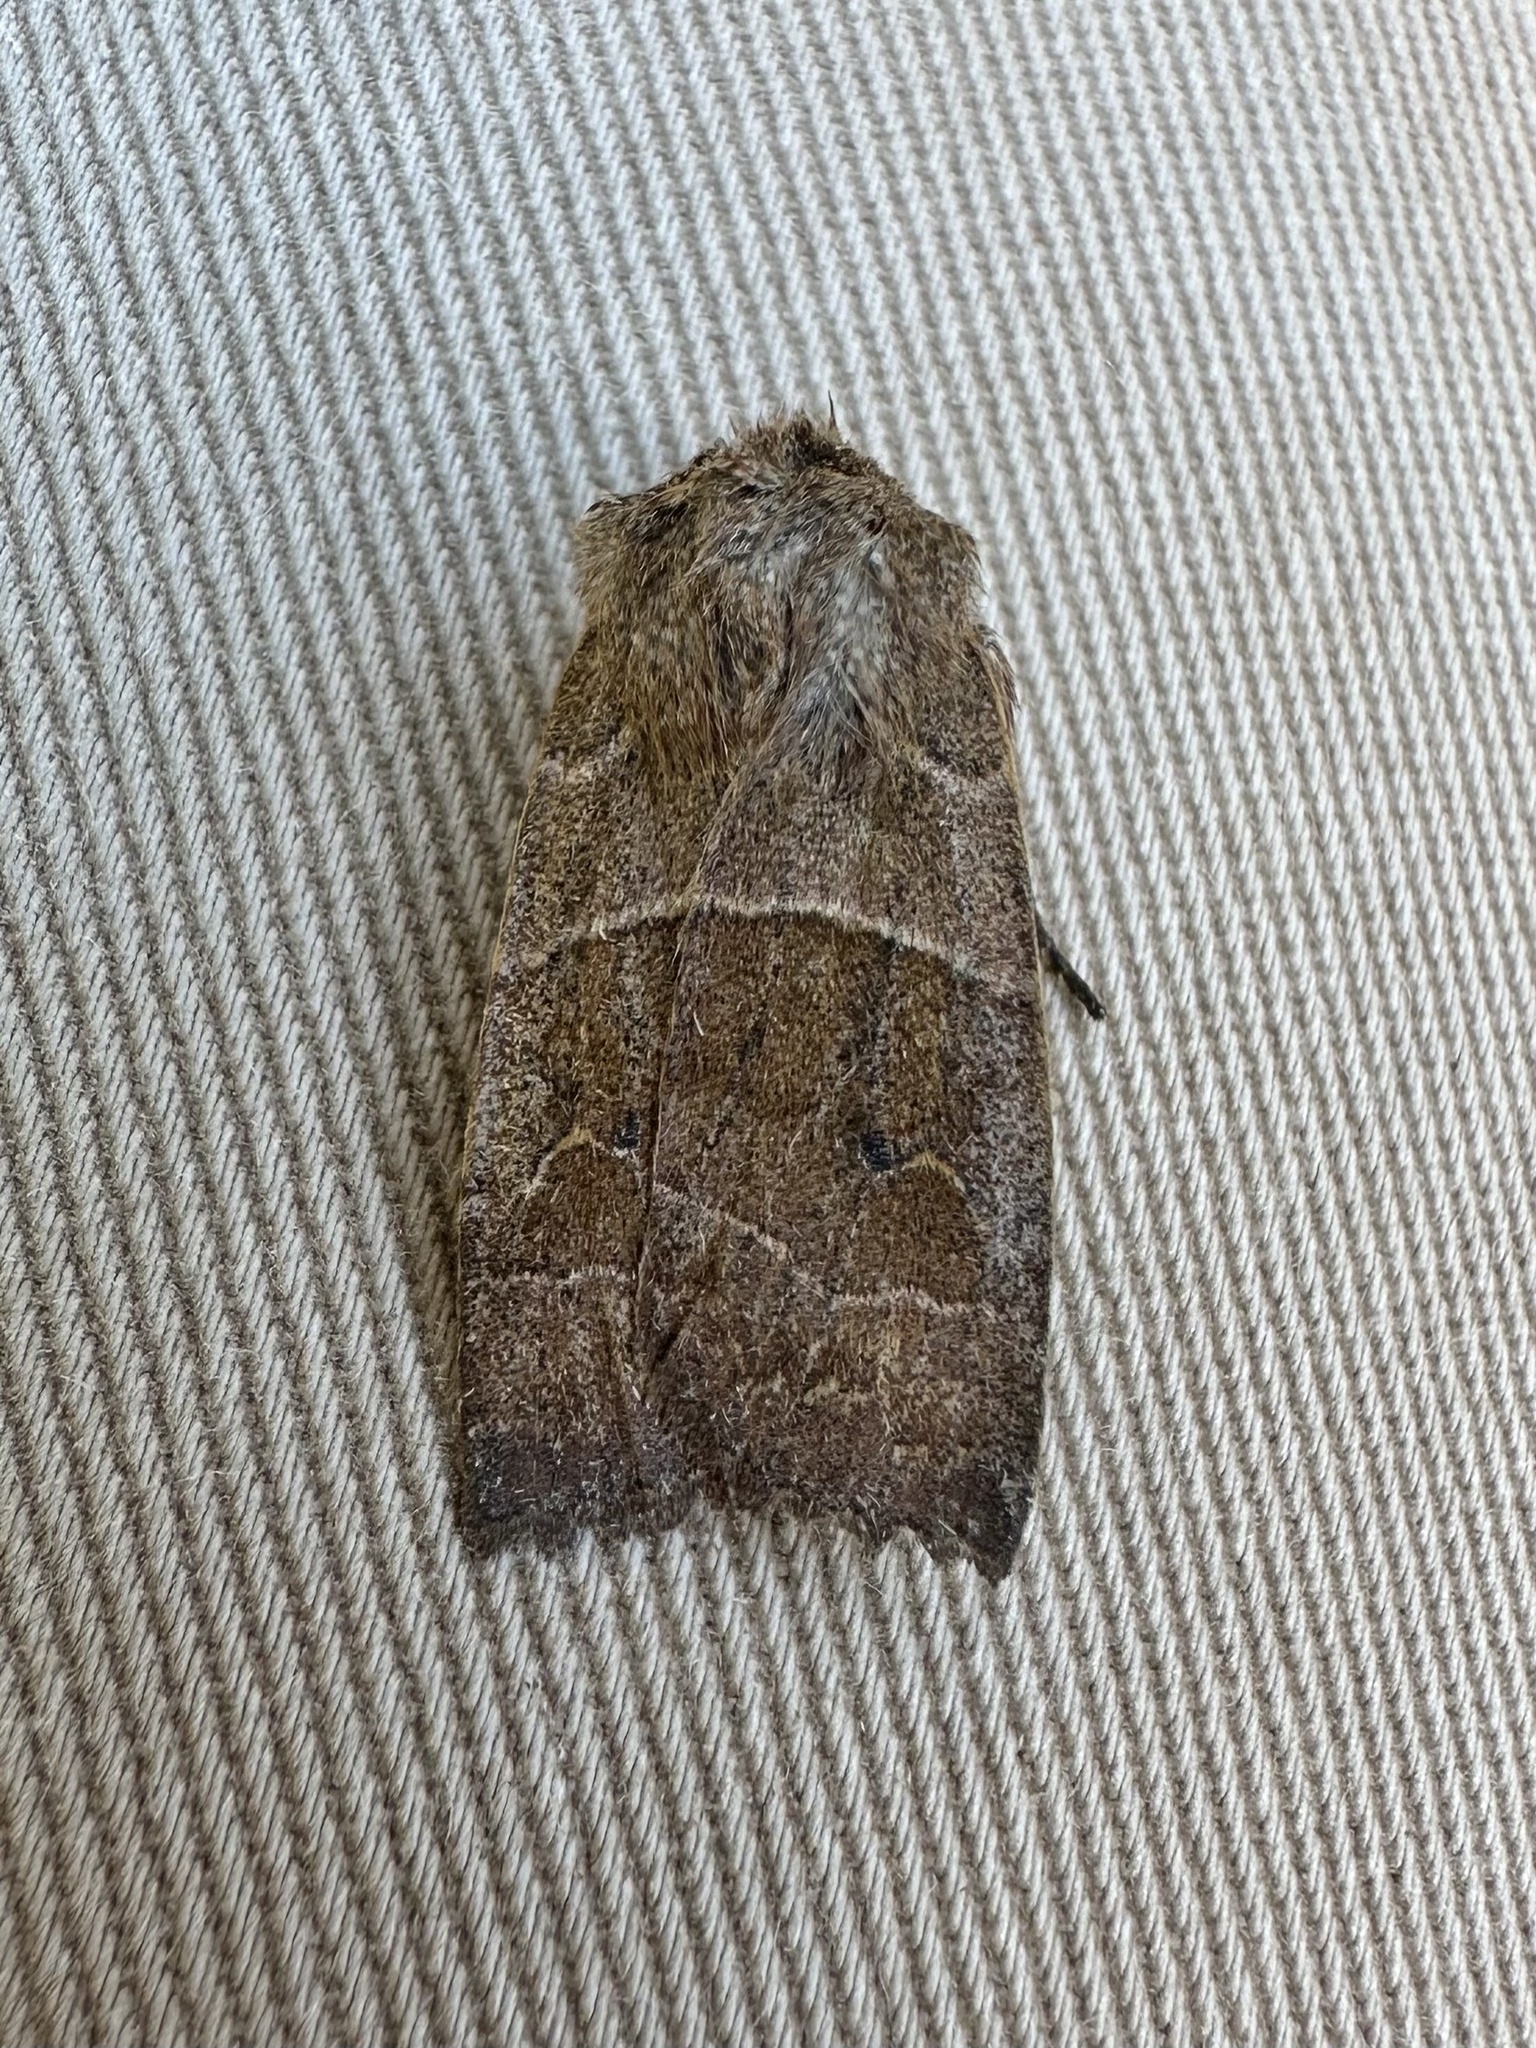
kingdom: Animalia
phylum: Arthropoda
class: Insecta
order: Lepidoptera
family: Noctuidae
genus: Eupsilia
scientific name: Eupsilia morrisoni
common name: Morrison's sallow
